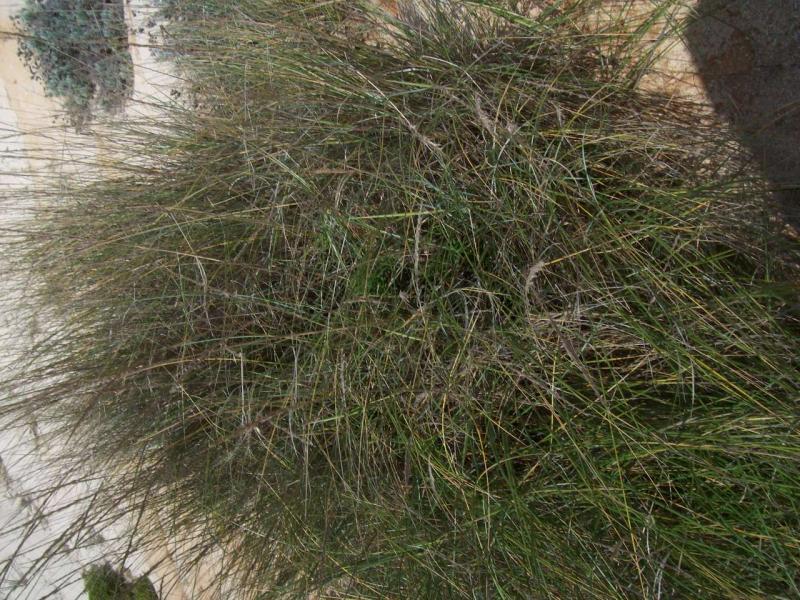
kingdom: Plantae
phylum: Tracheophyta
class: Liliopsida
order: Poales
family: Poaceae
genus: Calamagrostis
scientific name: Calamagrostis arenaria
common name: European beachgrass
